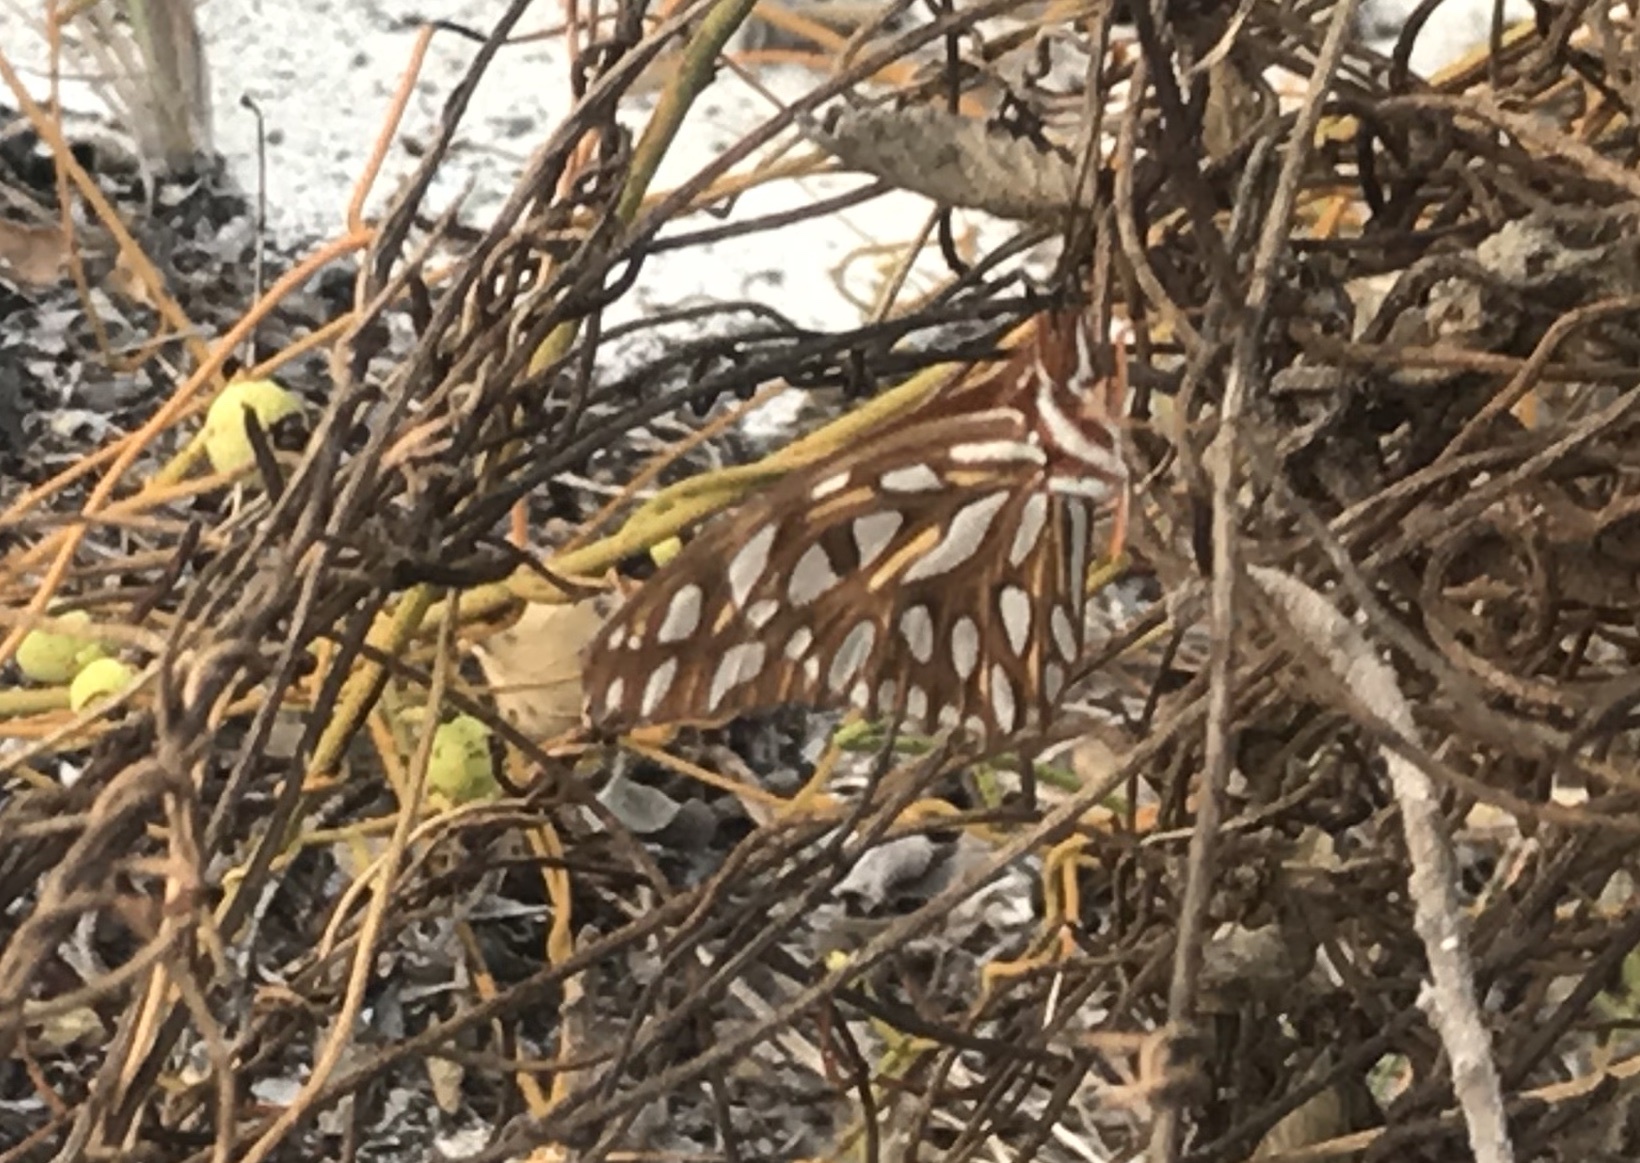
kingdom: Animalia
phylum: Arthropoda
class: Insecta
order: Lepidoptera
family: Nymphalidae
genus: Dione
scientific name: Dione vanillae
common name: Gulf fritillary
